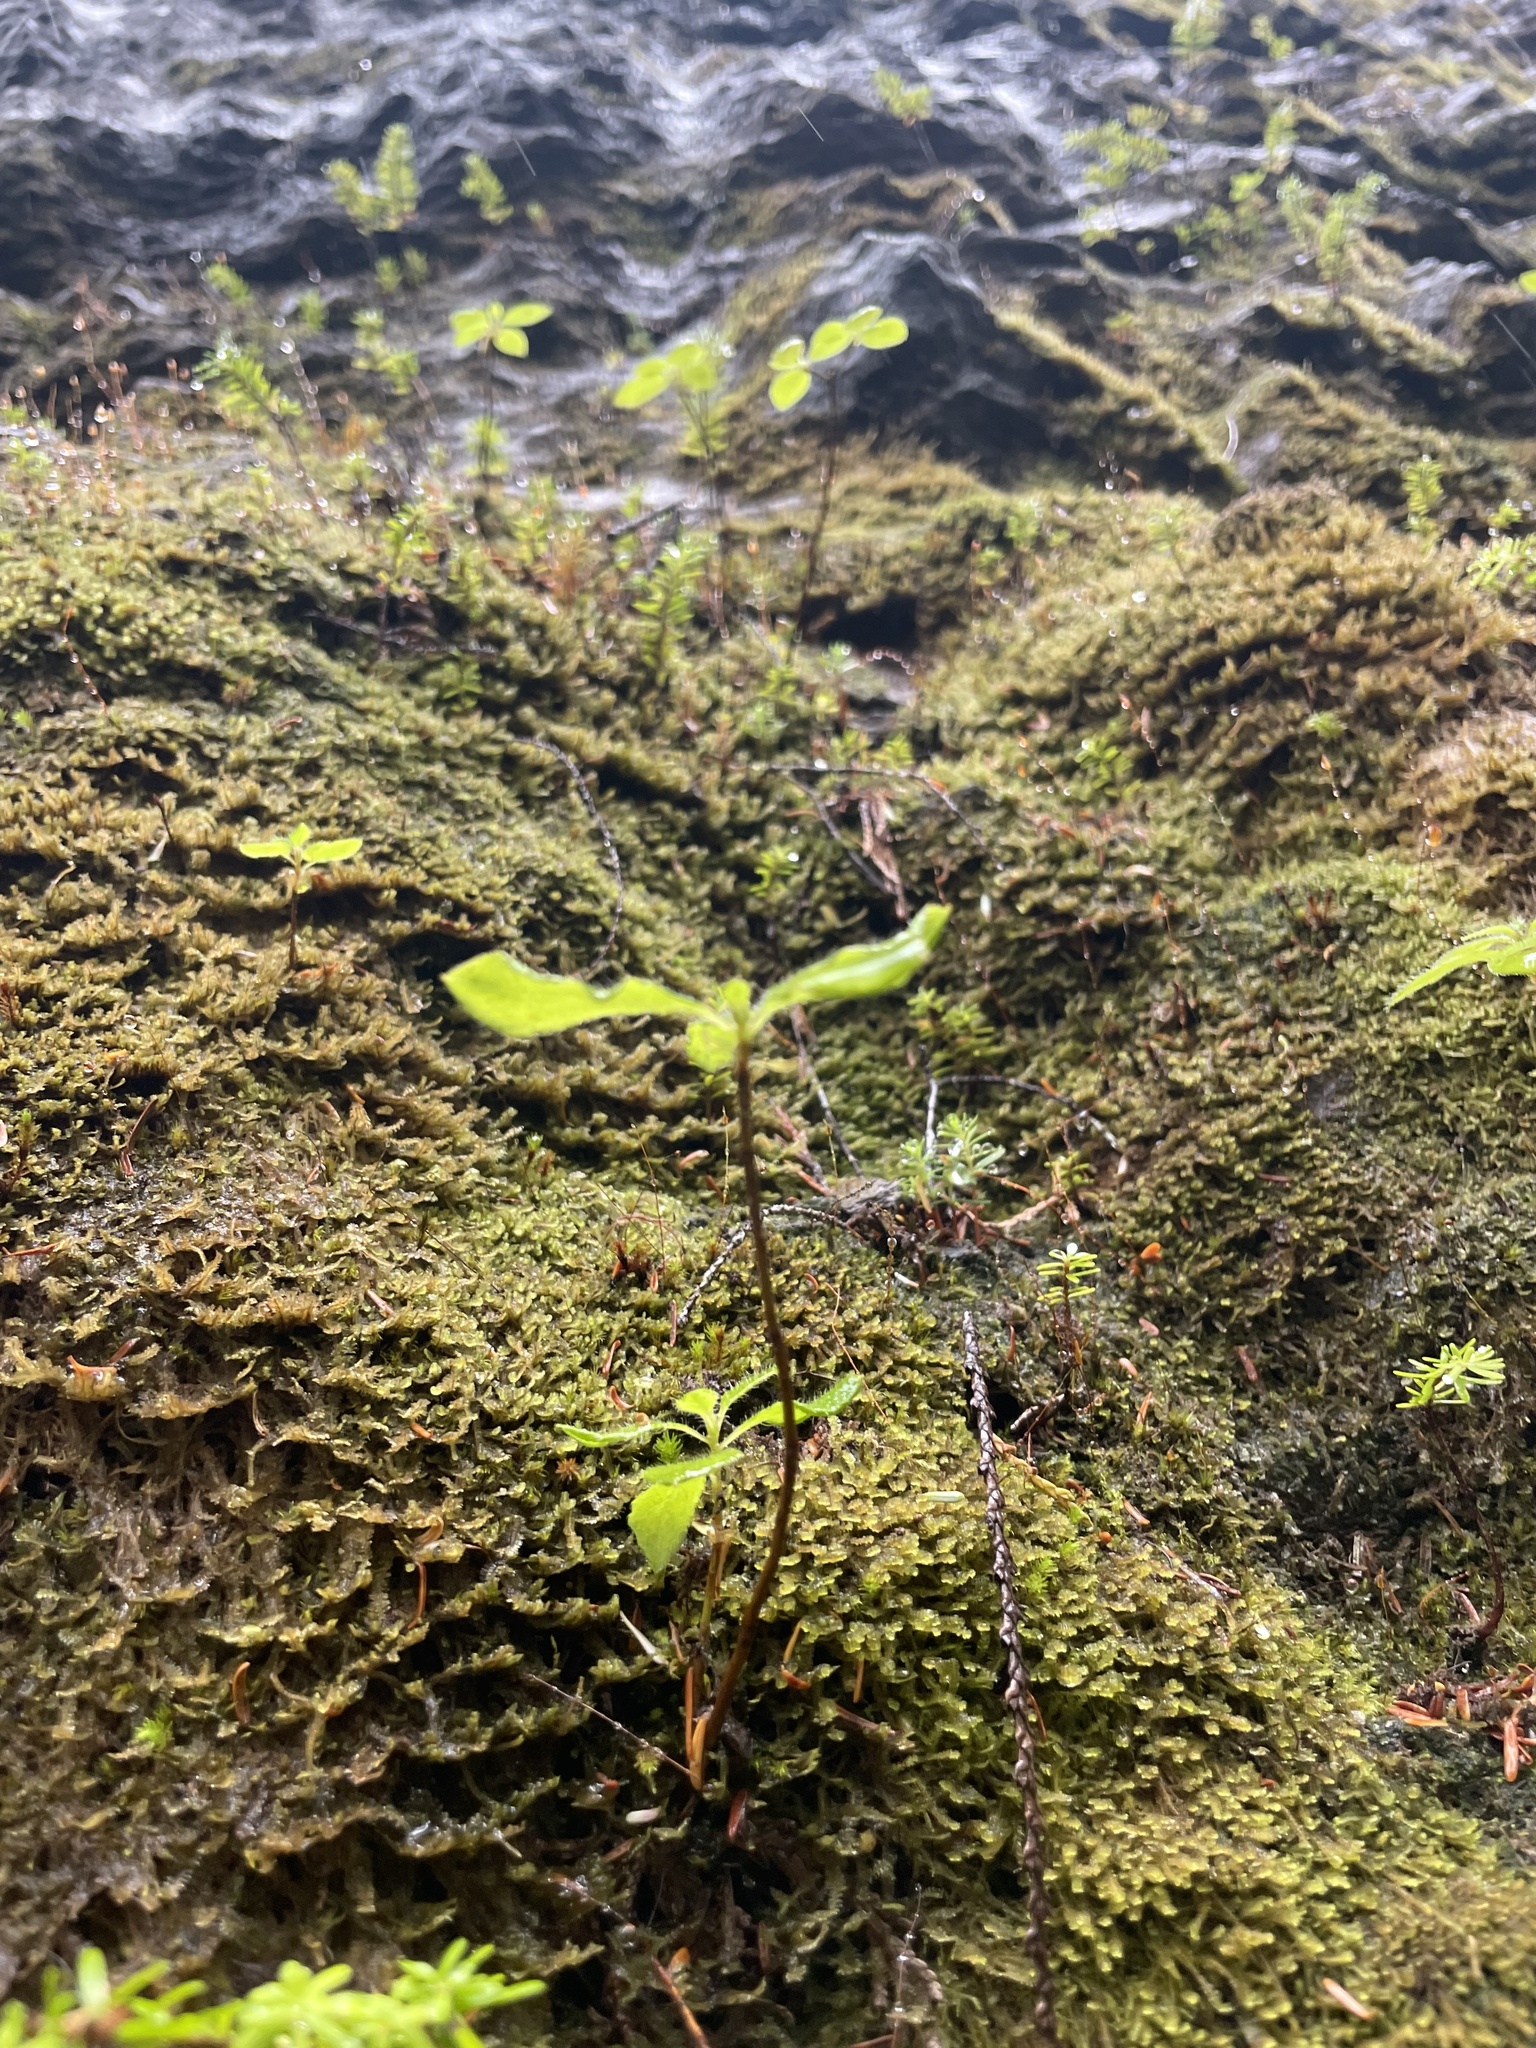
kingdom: Plantae
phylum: Tracheophyta
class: Magnoliopsida
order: Ericales
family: Ericaceae
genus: Rhododendron
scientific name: Rhododendron menziesii
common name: Pacific menziesia
